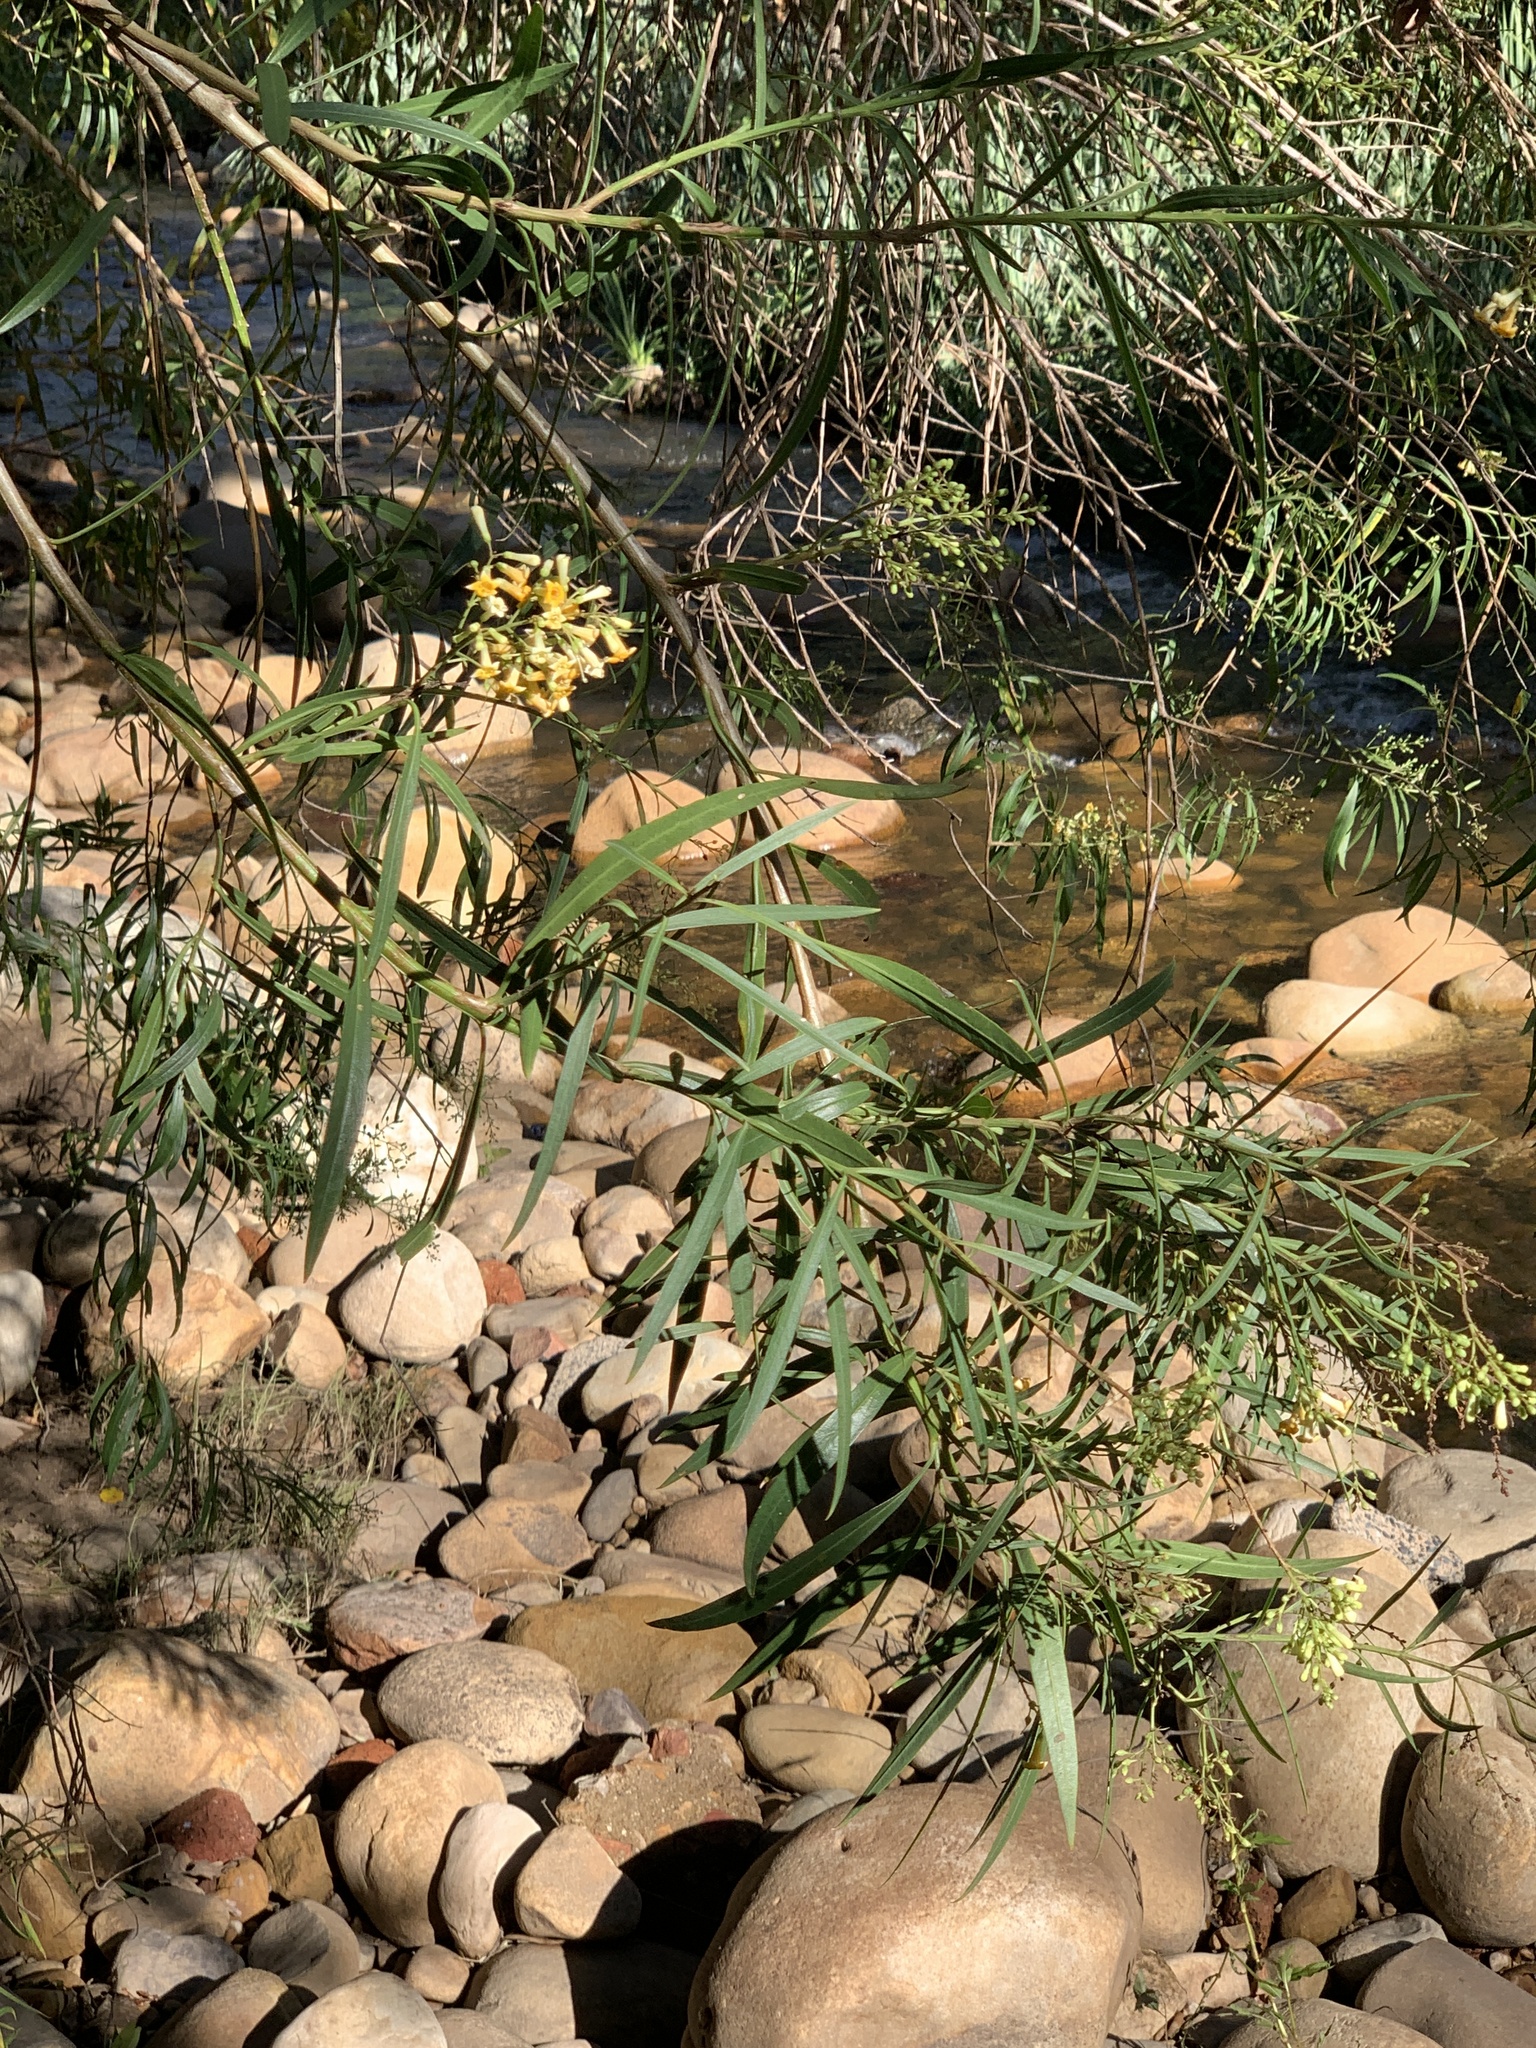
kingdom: Plantae
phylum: Tracheophyta
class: Magnoliopsida
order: Lamiales
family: Scrophulariaceae
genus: Freylinia
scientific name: Freylinia lanceolata
